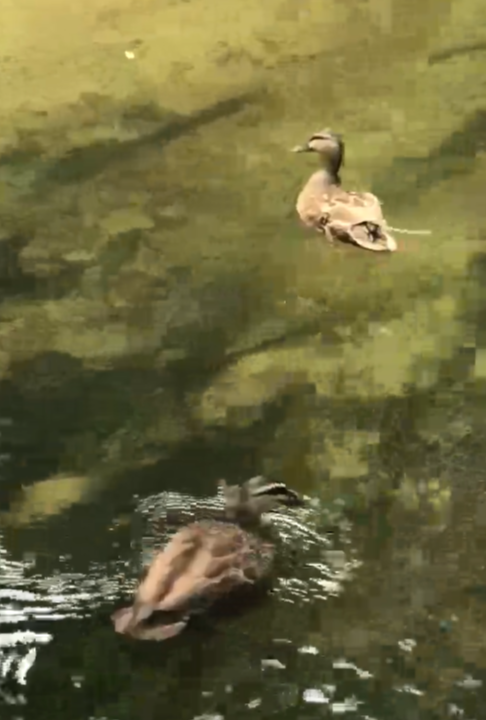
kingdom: Animalia
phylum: Chordata
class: Aves
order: Anseriformes
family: Anatidae
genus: Anas
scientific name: Anas
